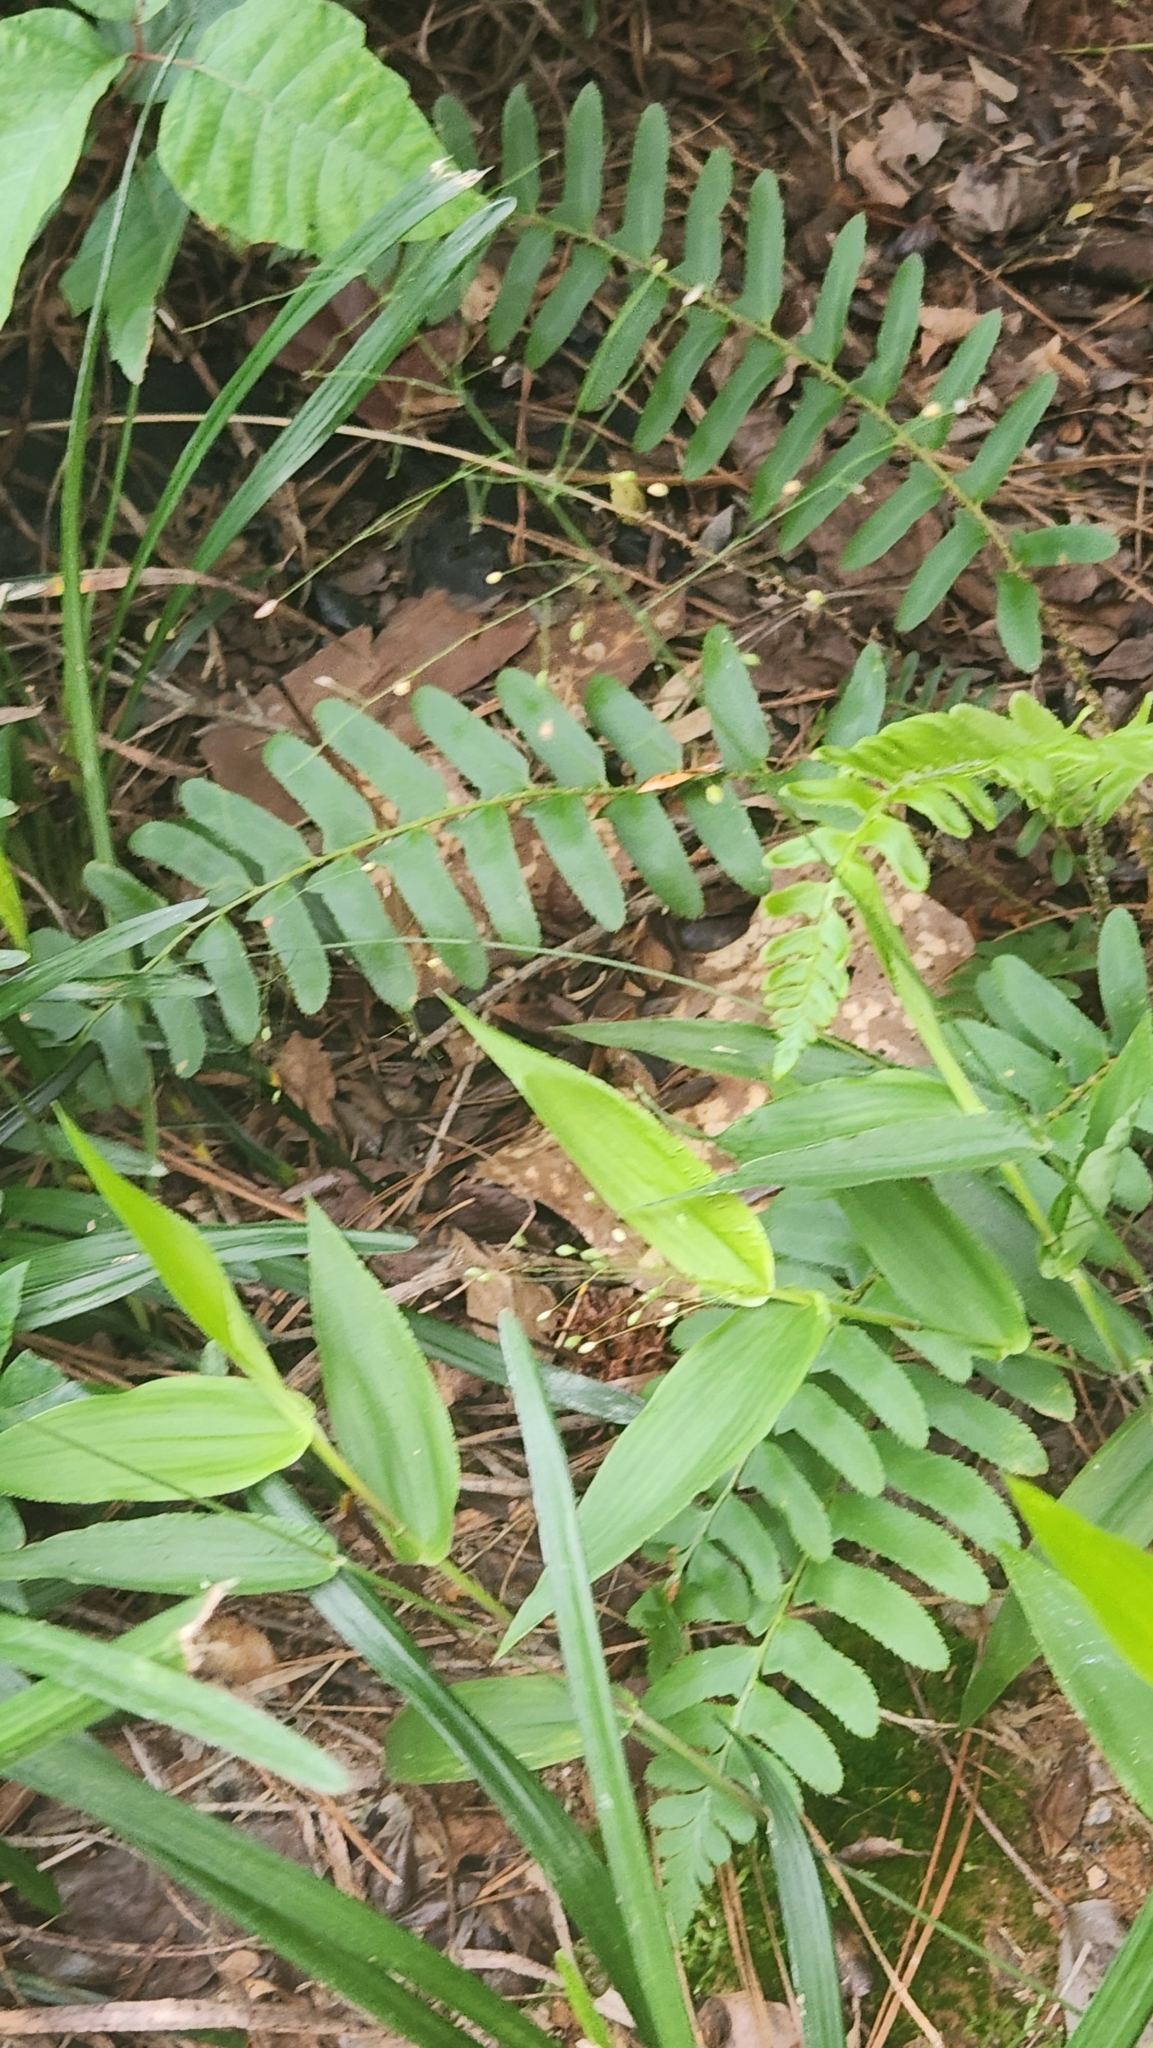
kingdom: Plantae
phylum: Tracheophyta
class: Polypodiopsida
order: Polypodiales
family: Dryopteridaceae
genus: Polystichum
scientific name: Polystichum acrostichoides
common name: Christmas fern
